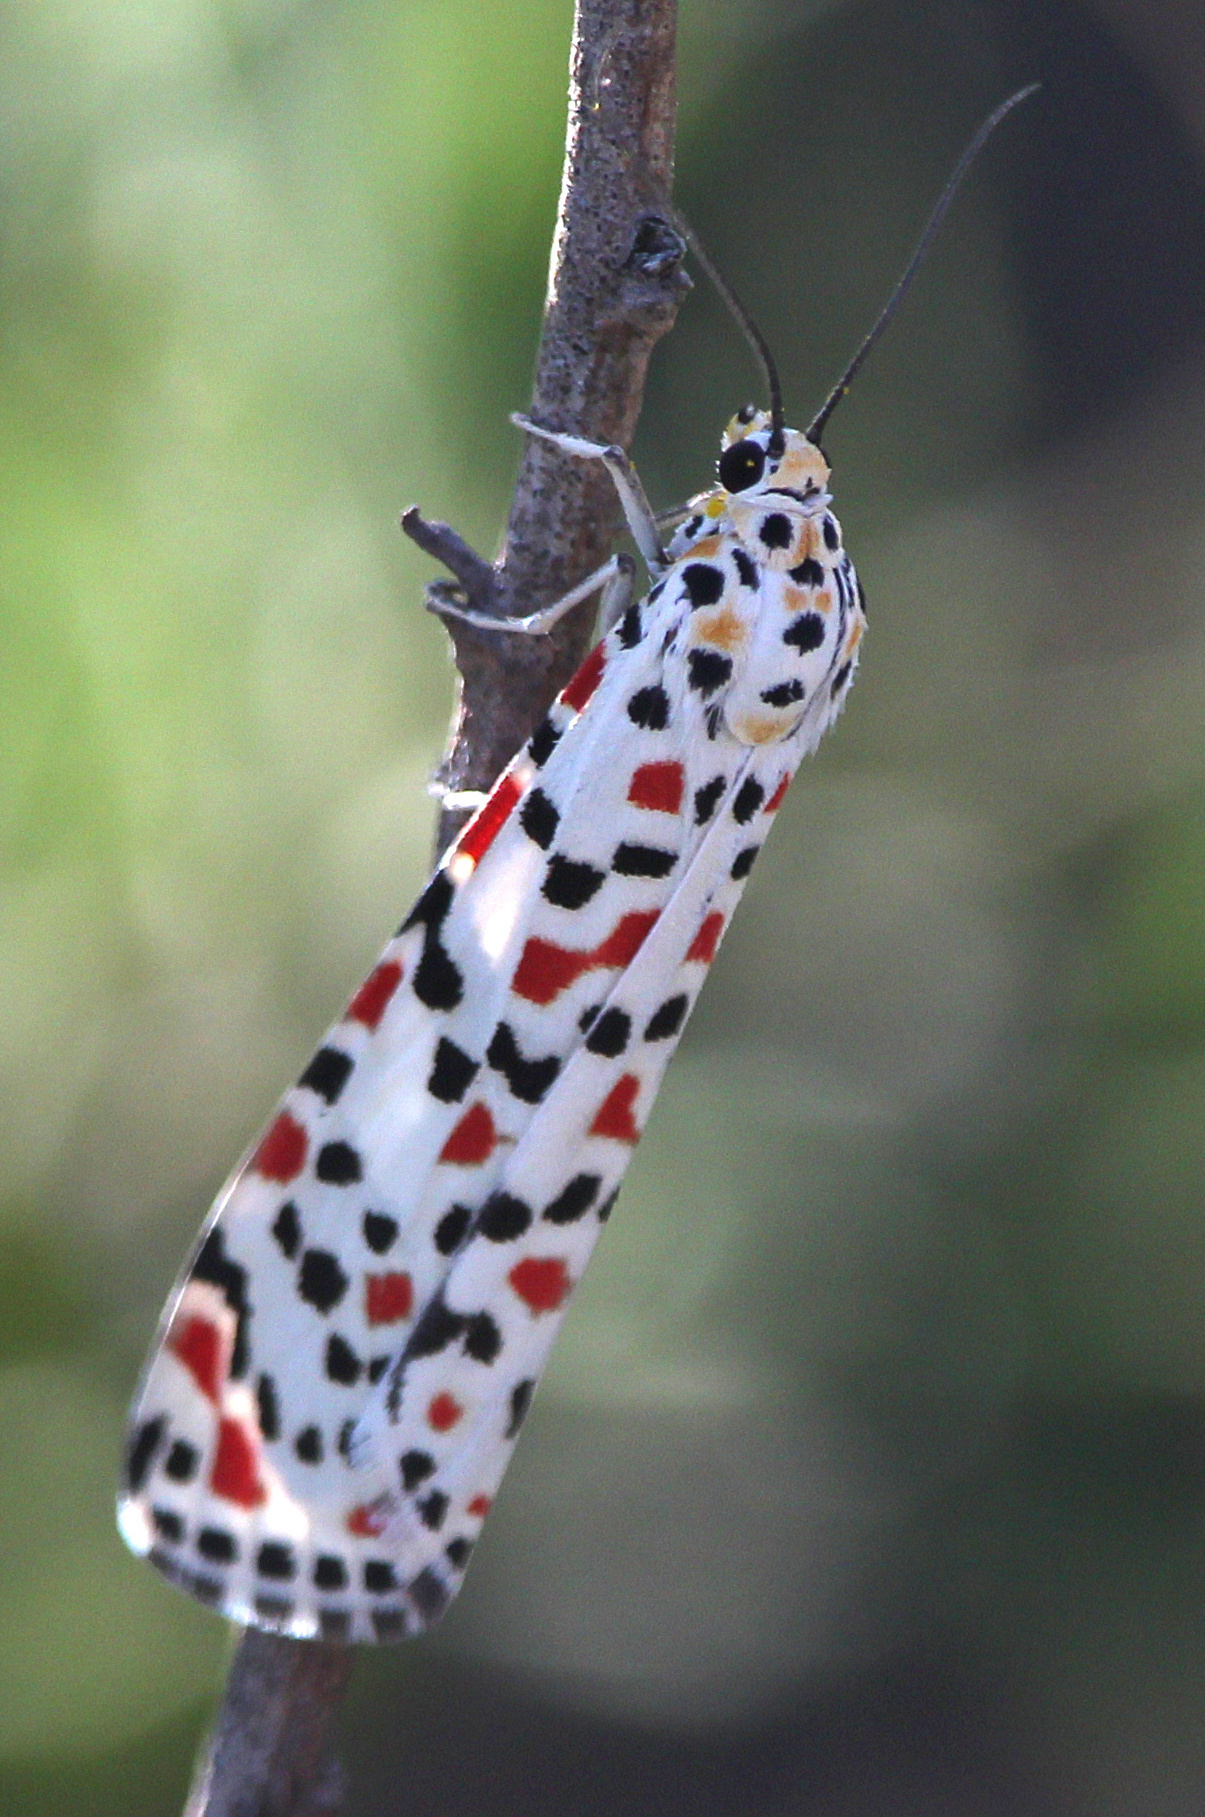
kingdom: Animalia
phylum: Arthropoda
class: Insecta
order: Lepidoptera
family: Erebidae
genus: Utetheisa
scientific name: Utetheisa pulchella
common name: Crimson speckled
